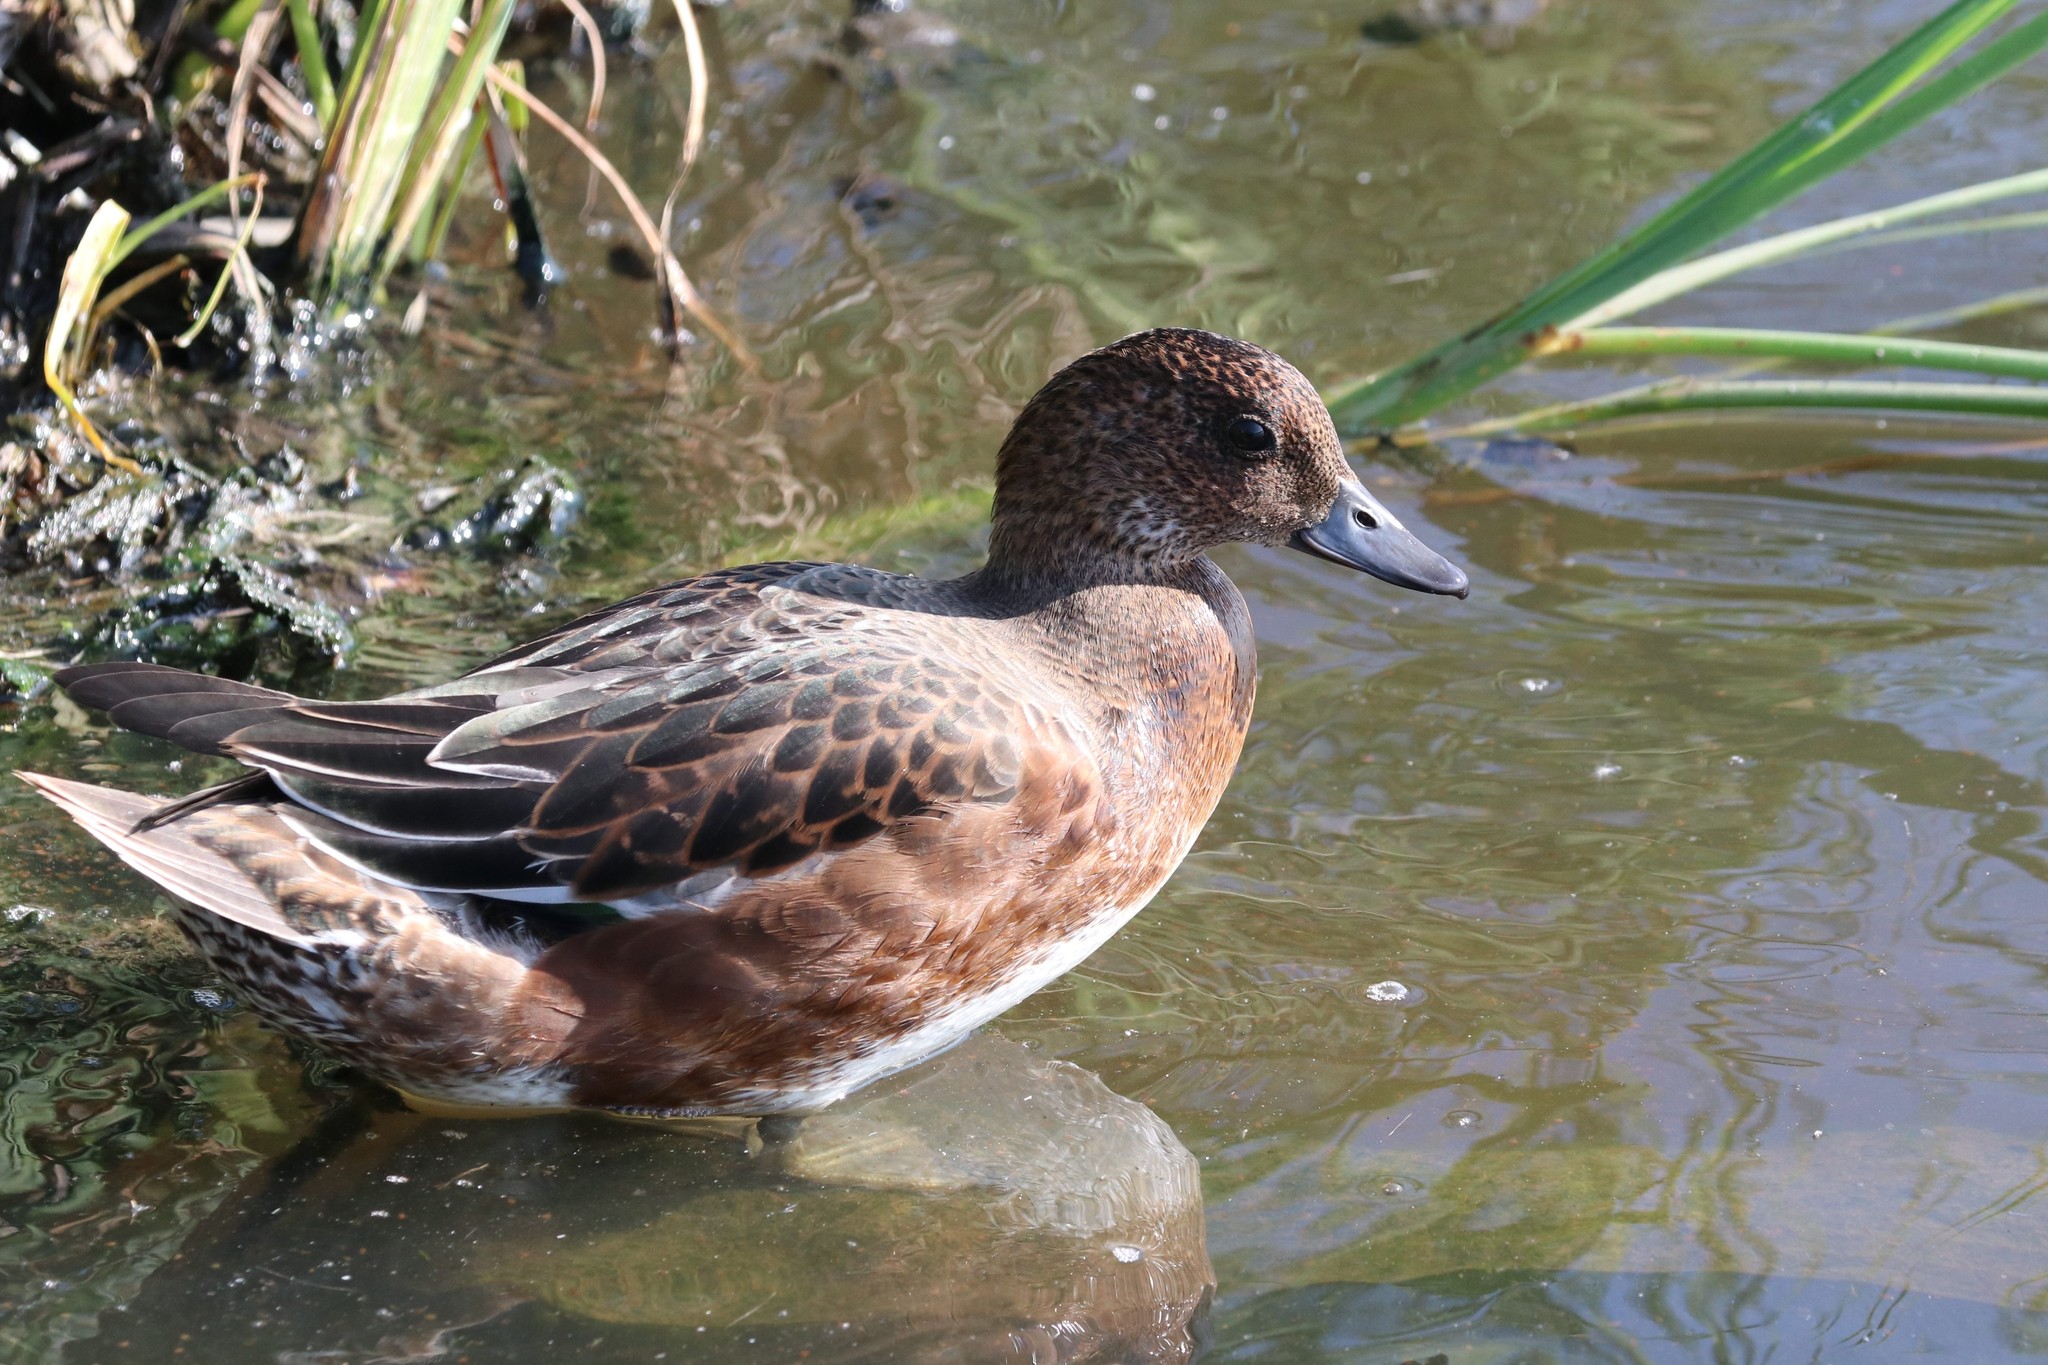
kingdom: Animalia
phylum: Chordata
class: Aves
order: Anseriformes
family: Anatidae
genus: Mareca
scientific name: Mareca penelope
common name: Eurasian wigeon
